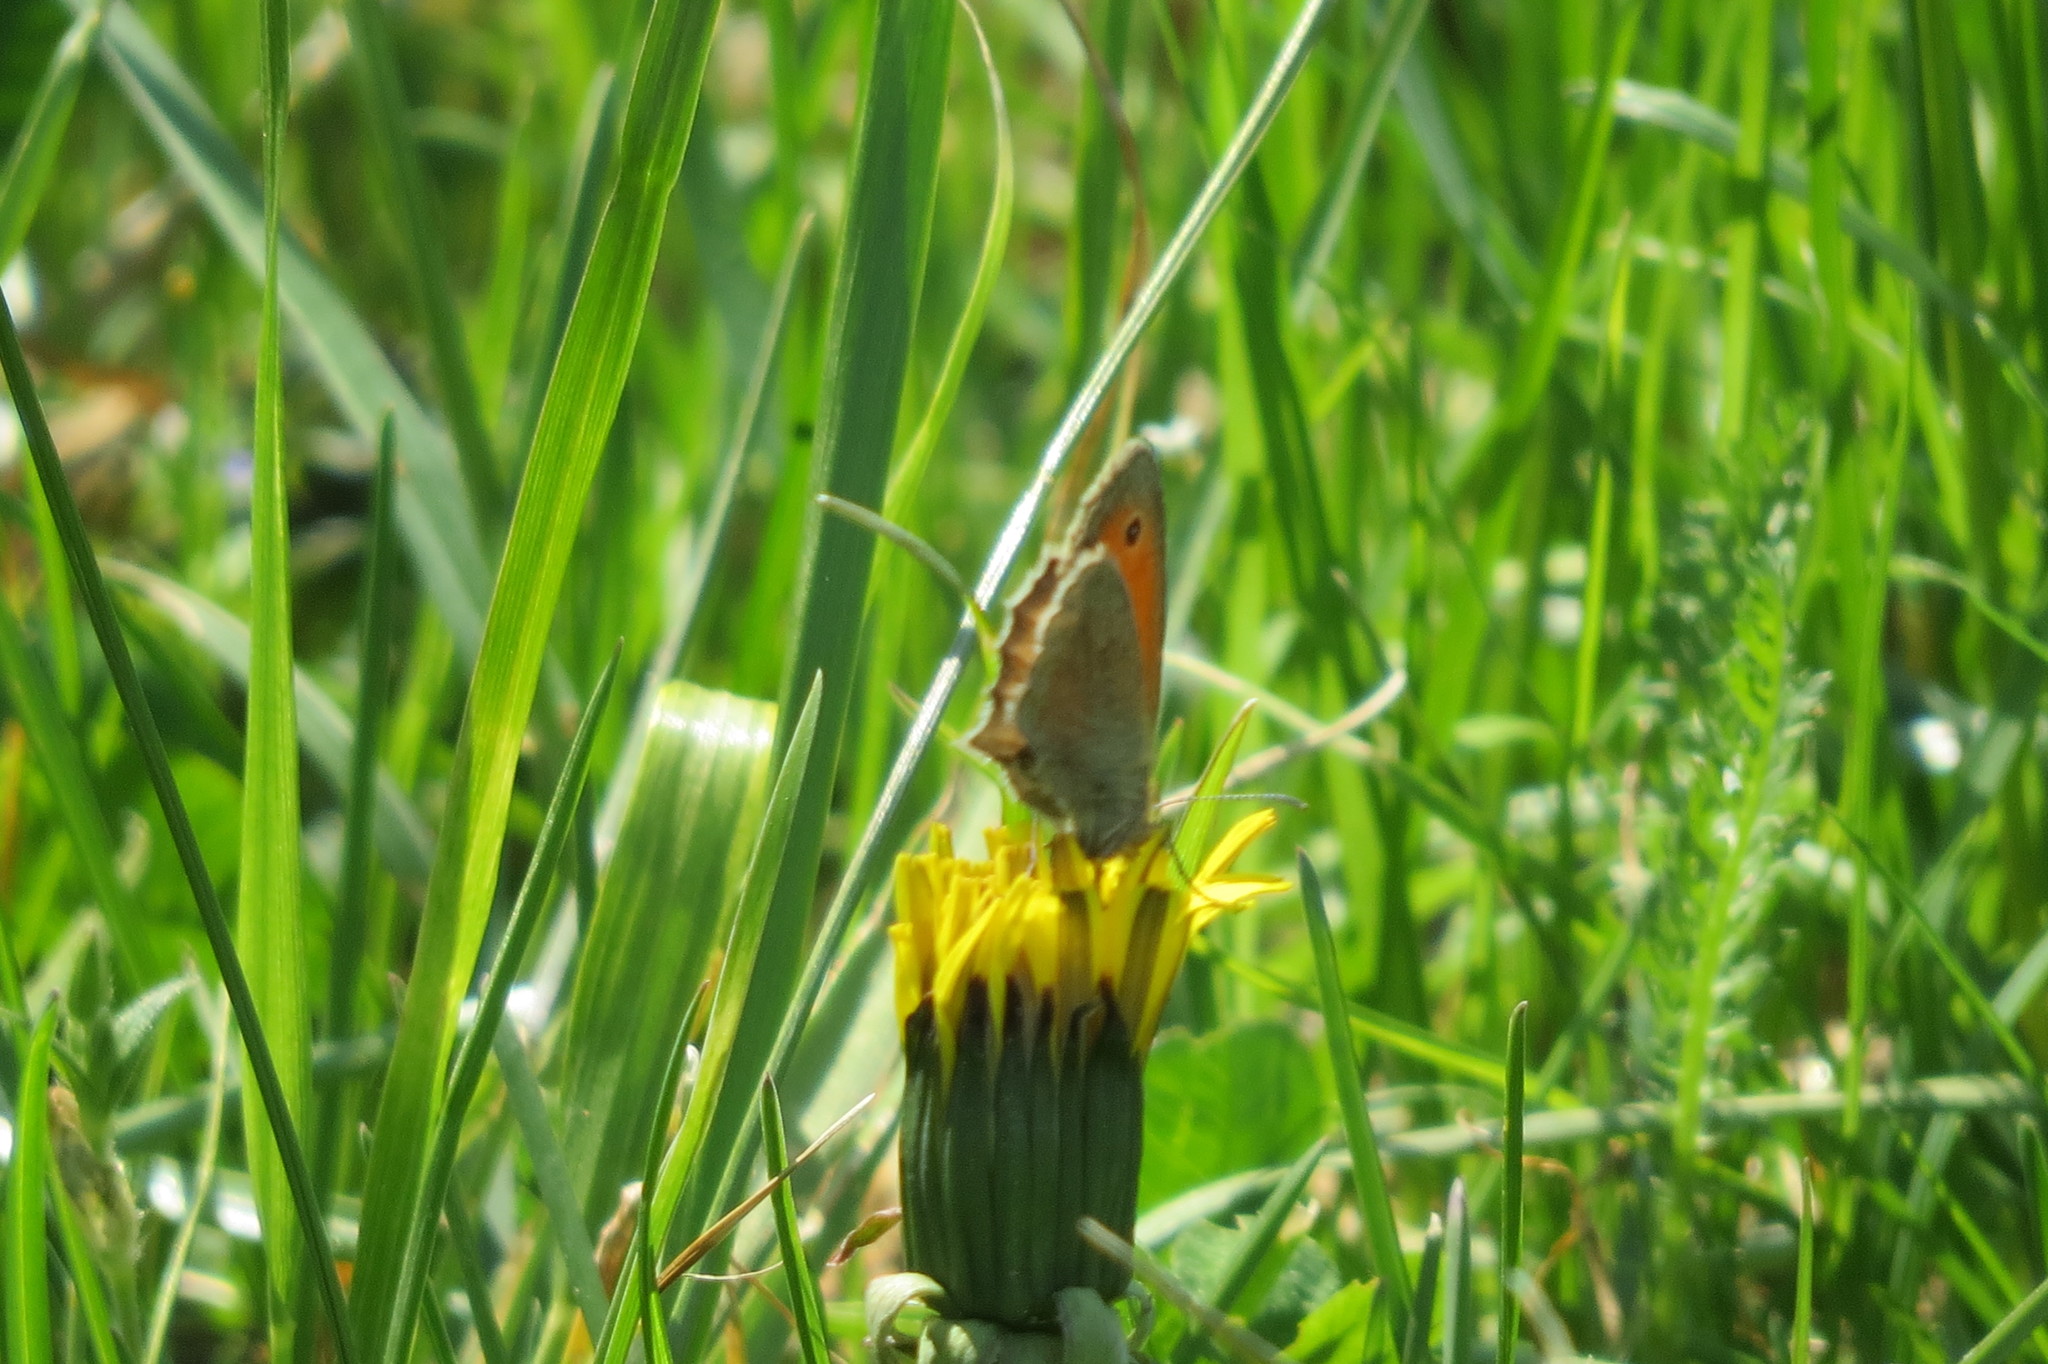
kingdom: Animalia
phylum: Arthropoda
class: Insecta
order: Lepidoptera
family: Nymphalidae
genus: Coenonympha
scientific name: Coenonympha pamphilus
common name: Small heath
